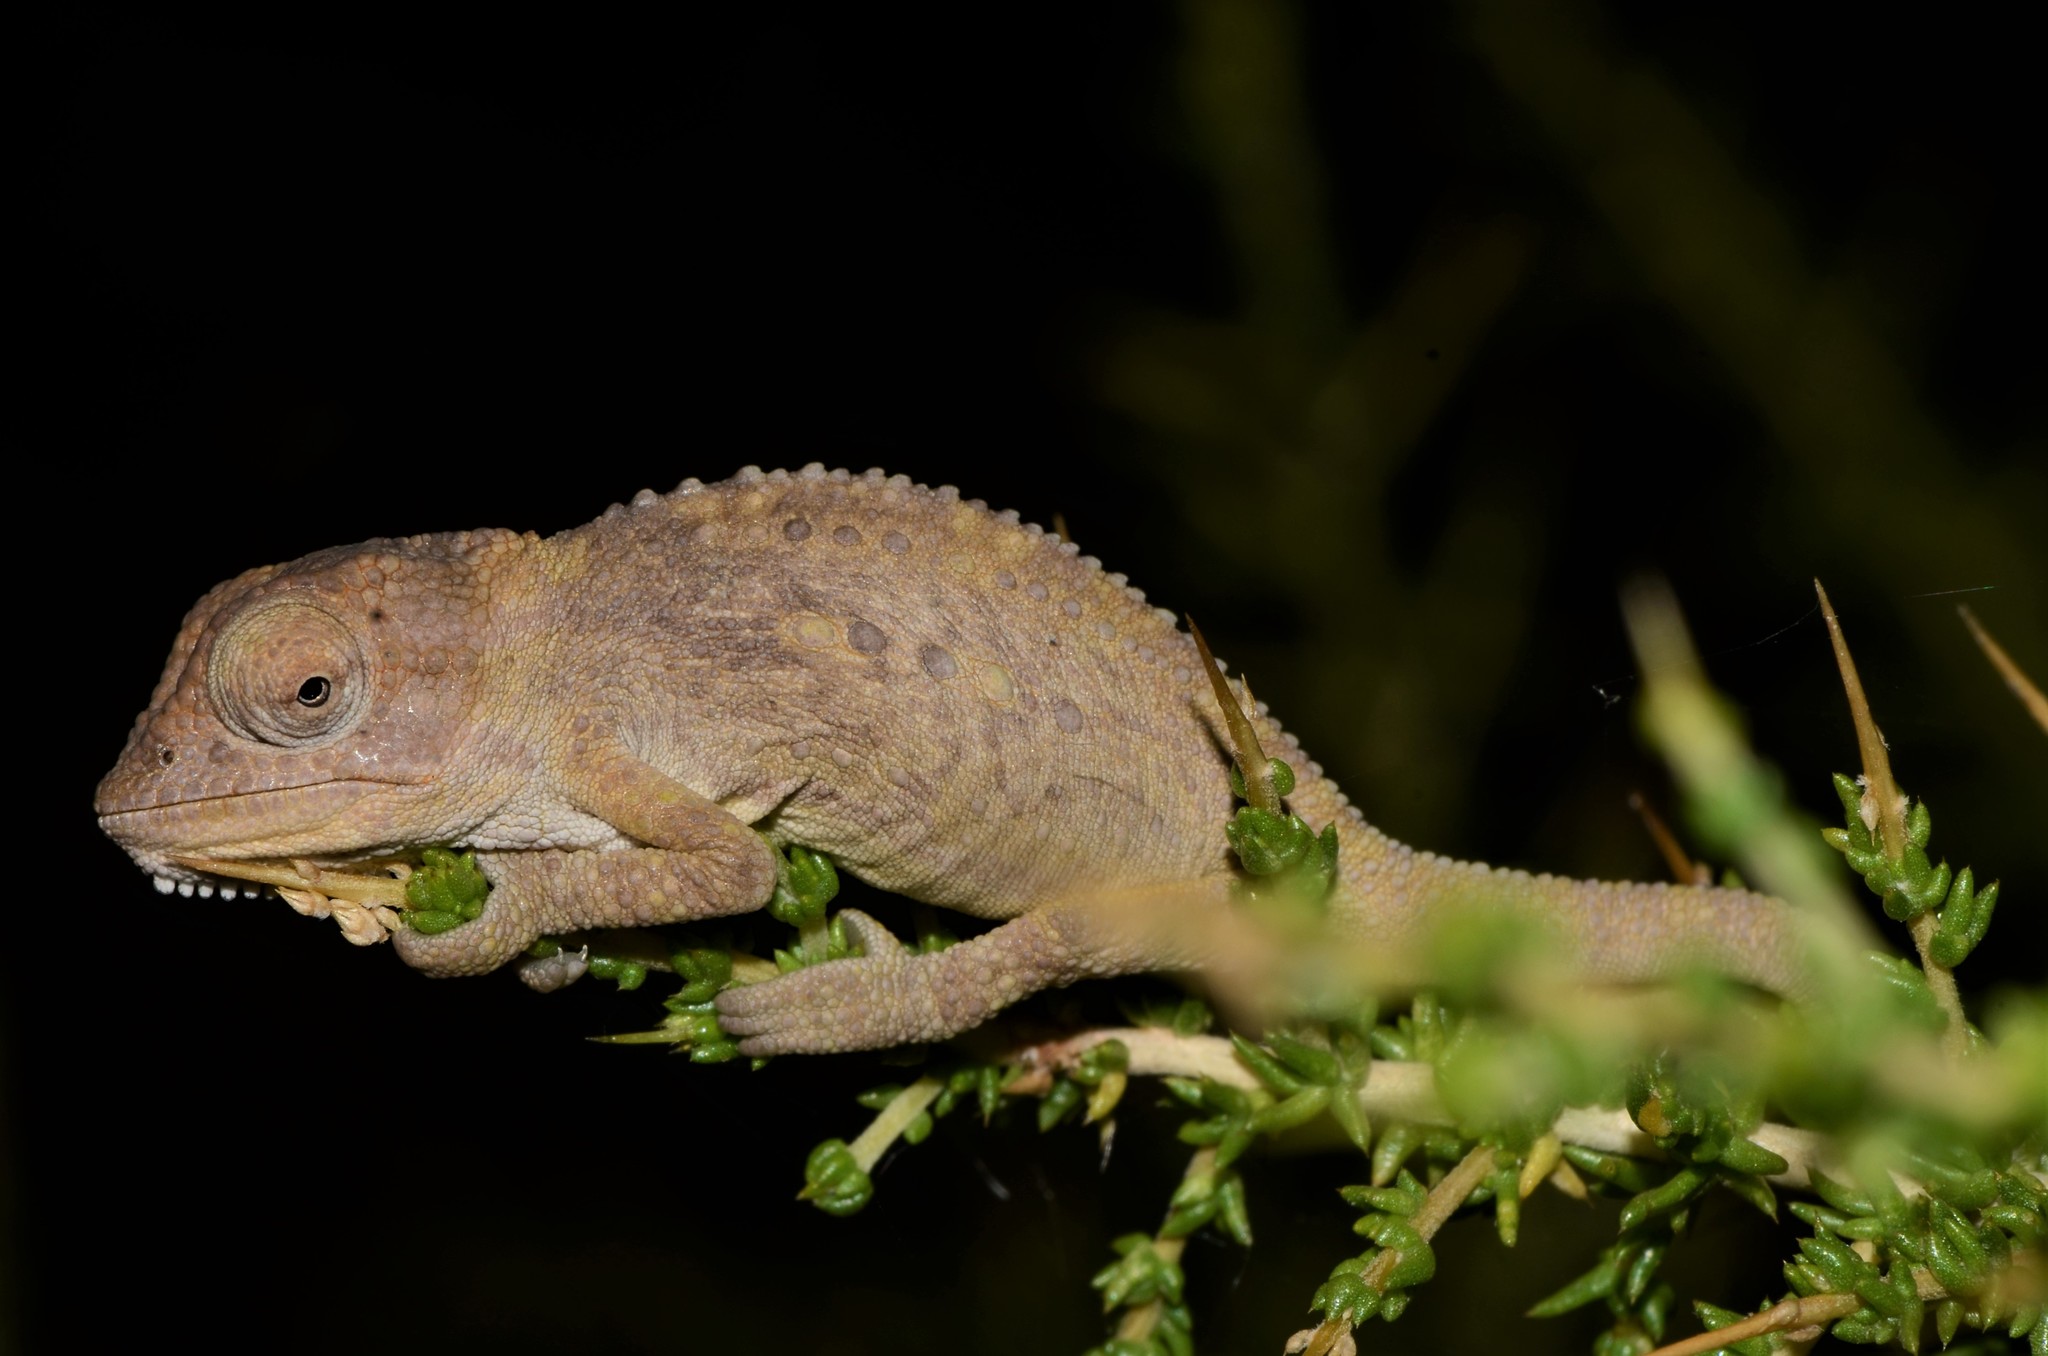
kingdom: Animalia
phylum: Chordata
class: Squamata
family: Chamaeleonidae
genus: Bradypodion
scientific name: Bradypodion pumilum
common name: Cape dwarf chameleon
